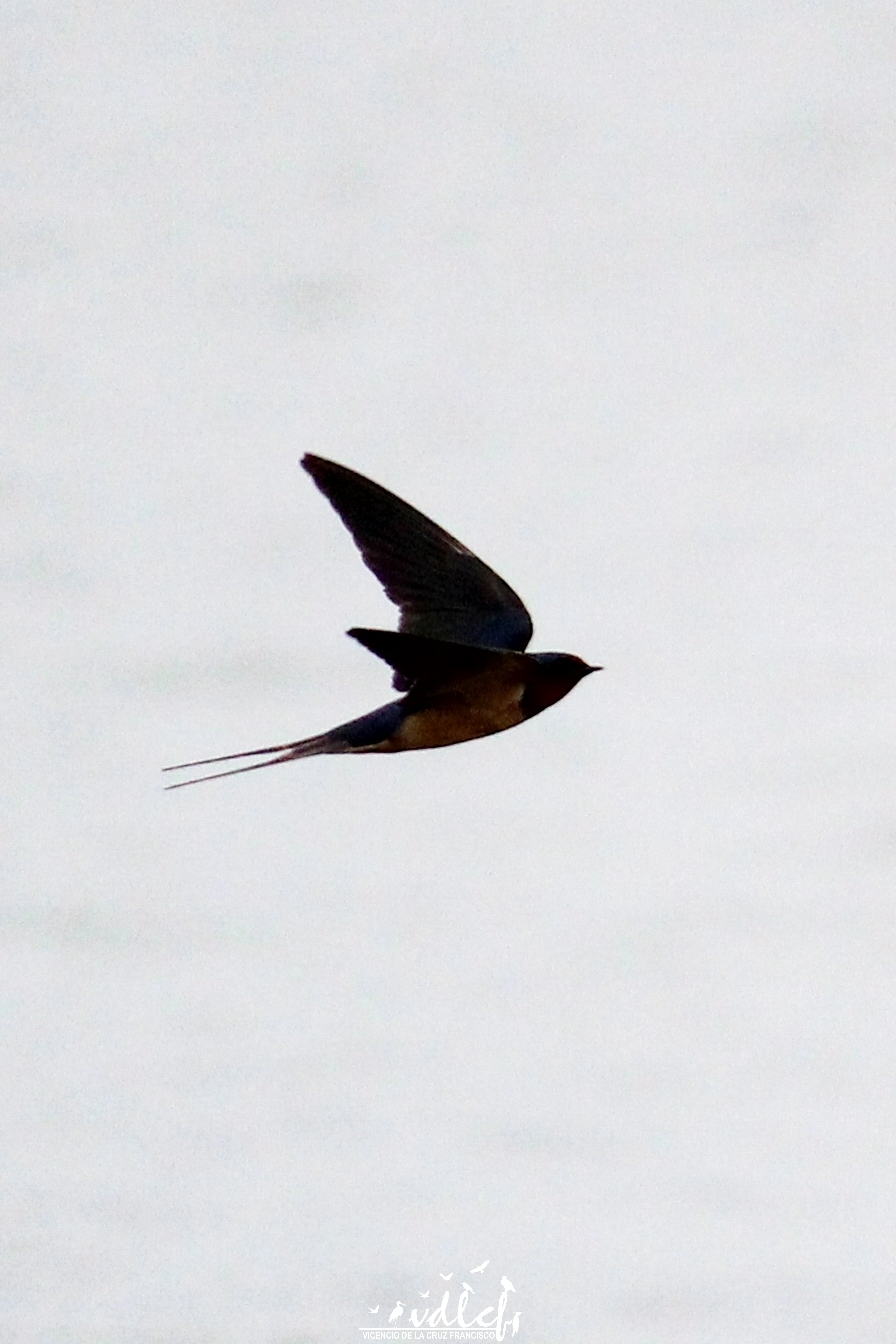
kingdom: Animalia
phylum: Chordata
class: Aves
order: Passeriformes
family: Hirundinidae
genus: Hirundo
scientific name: Hirundo rustica
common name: Barn swallow
